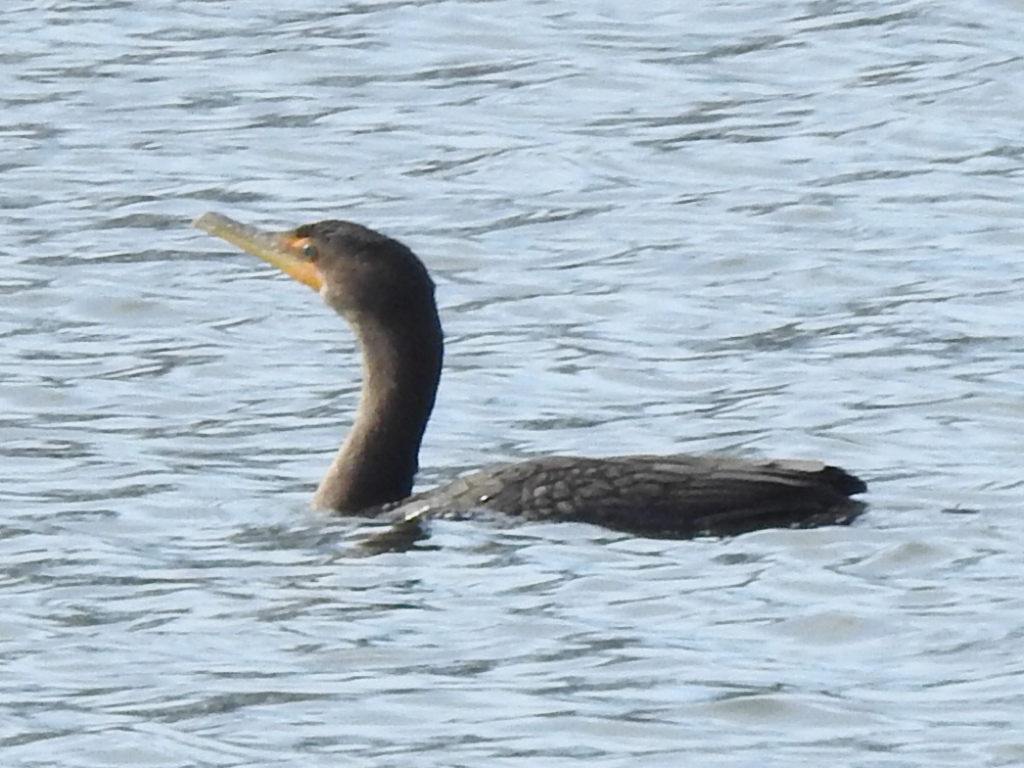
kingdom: Animalia
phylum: Chordata
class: Aves
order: Suliformes
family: Phalacrocoracidae
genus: Phalacrocorax
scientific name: Phalacrocorax auritus
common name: Double-crested cormorant
